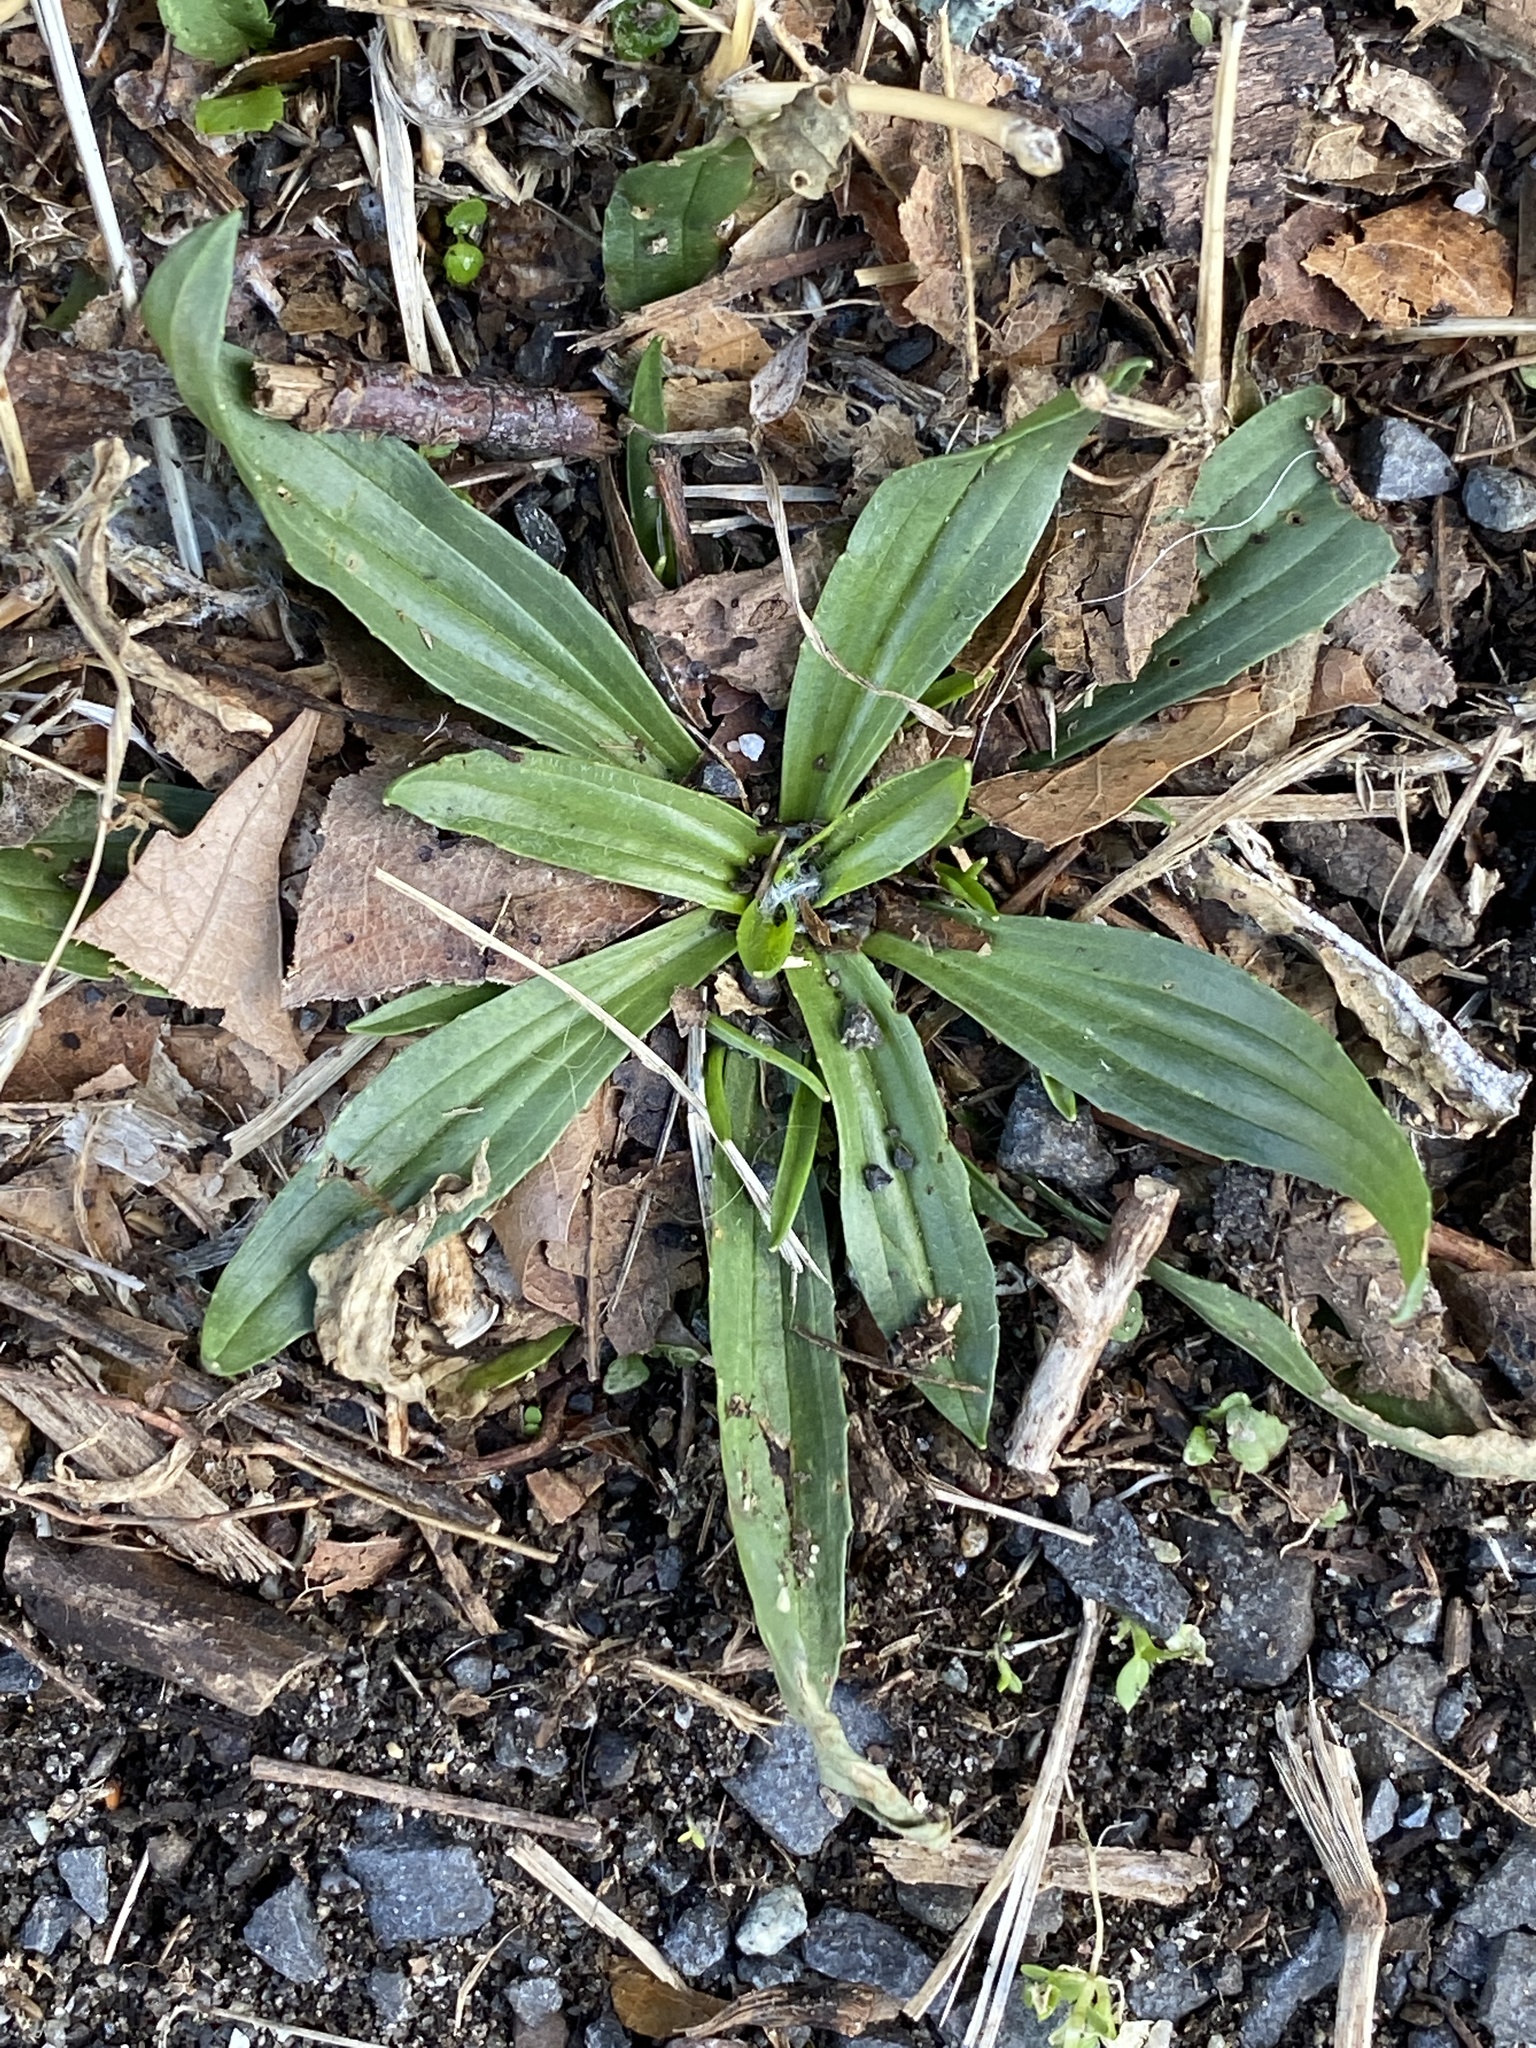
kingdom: Plantae
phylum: Tracheophyta
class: Magnoliopsida
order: Lamiales
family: Plantaginaceae
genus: Plantago
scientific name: Plantago lanceolata
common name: Ribwort plantain
